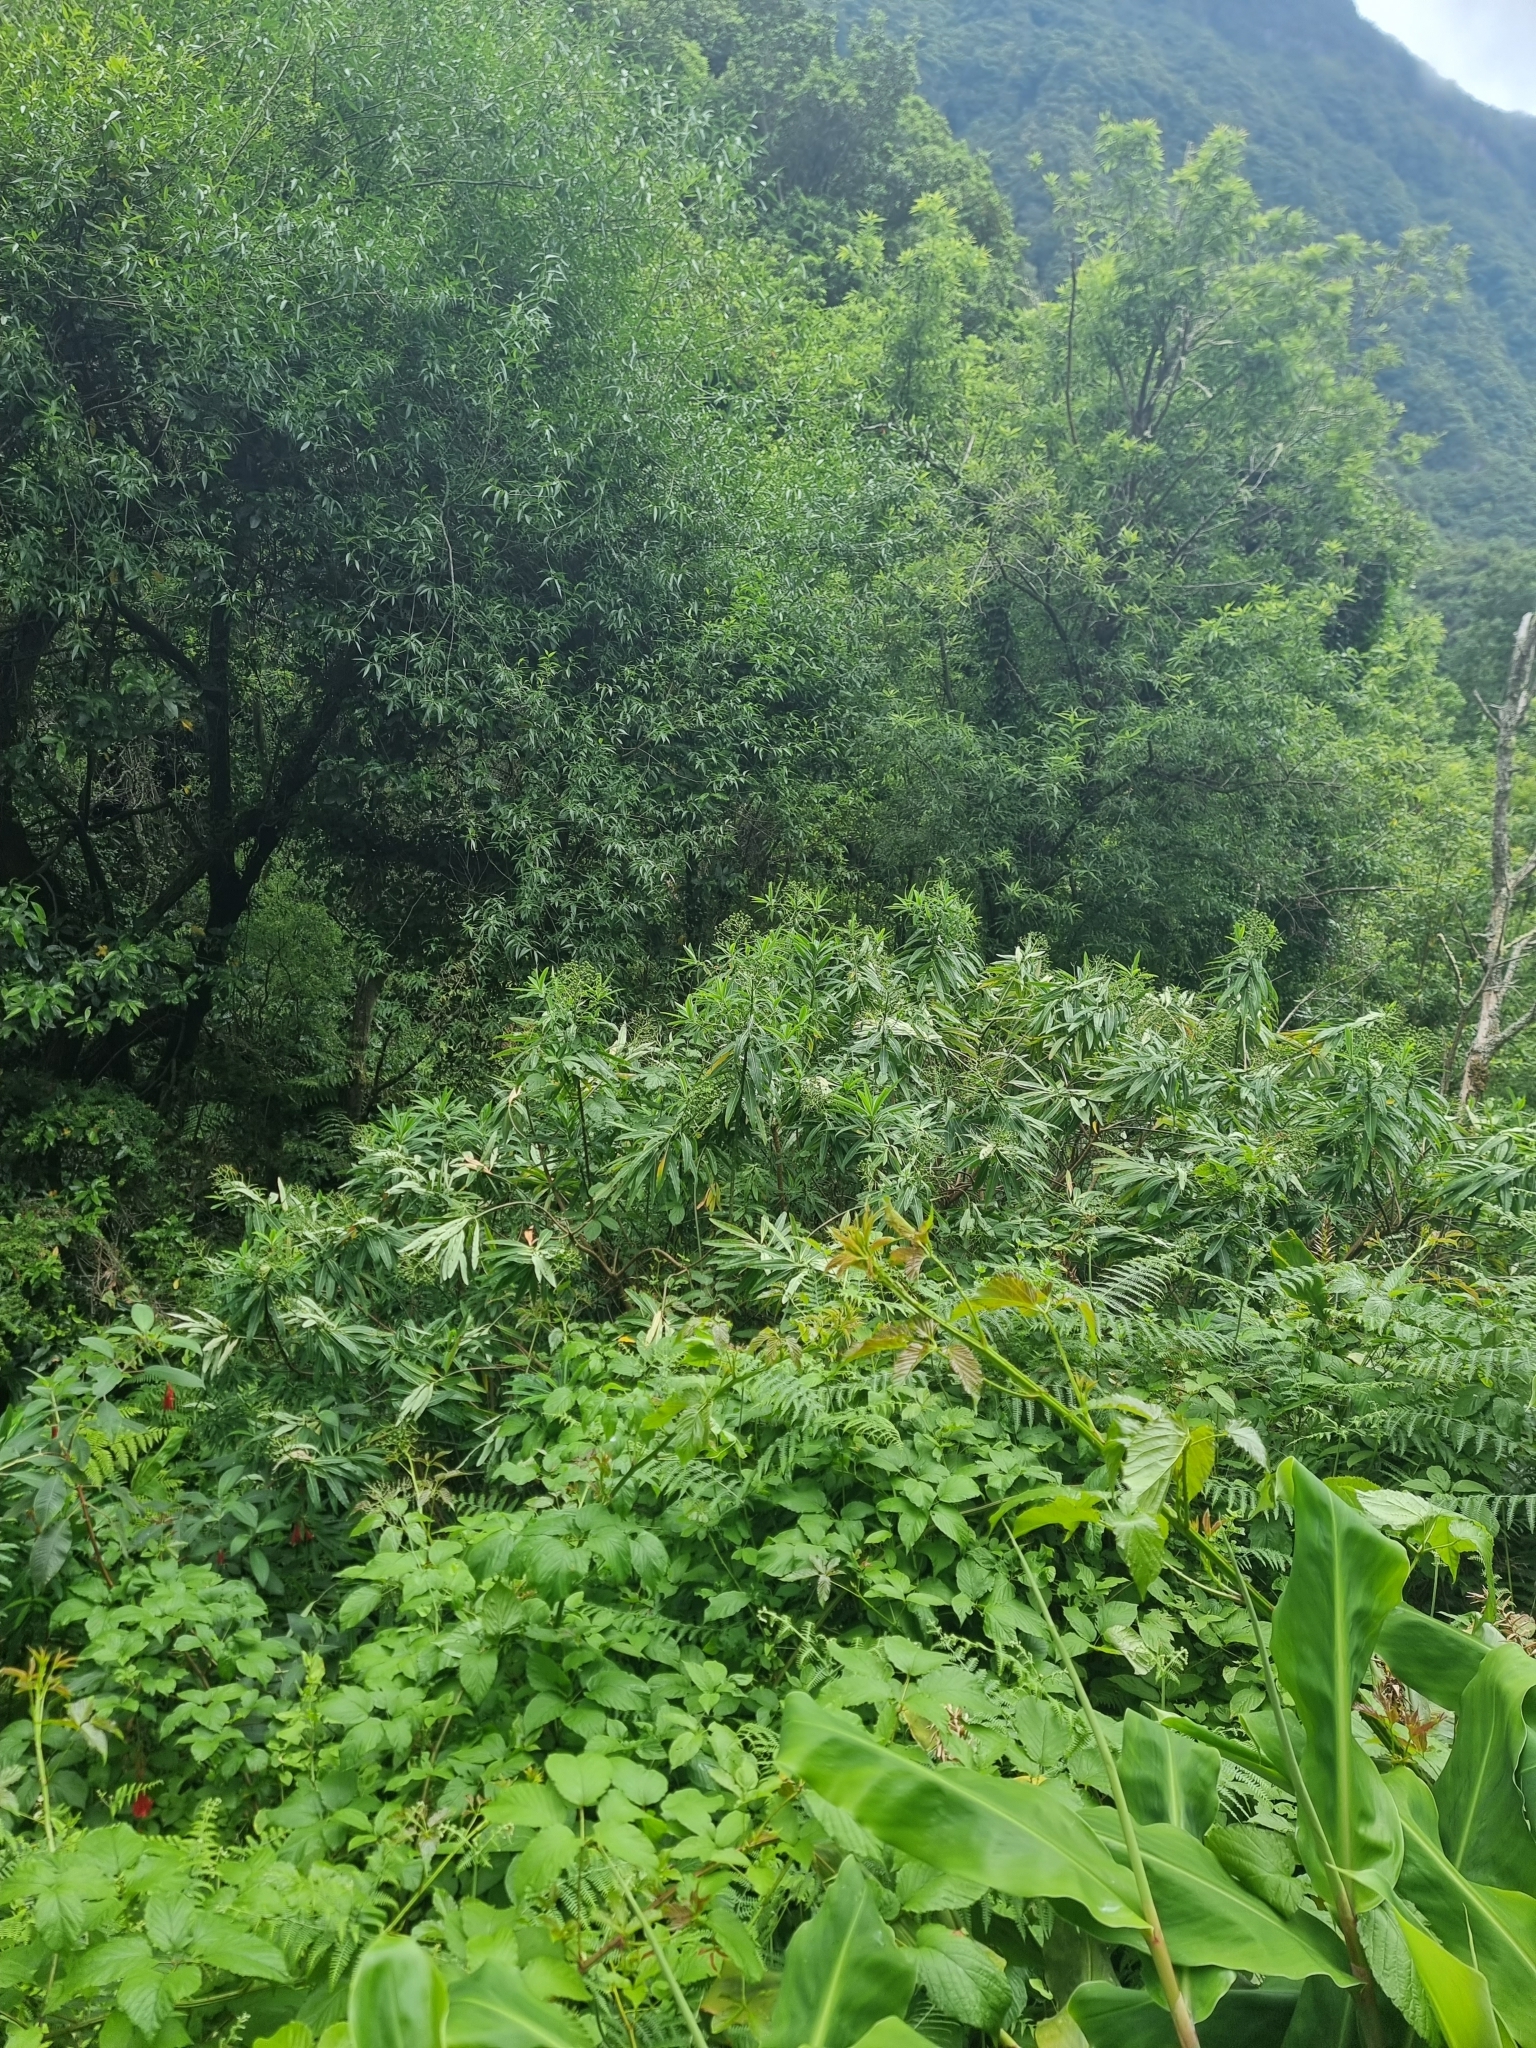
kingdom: Plantae
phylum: Tracheophyta
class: Magnoliopsida
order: Malpighiales
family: Euphorbiaceae
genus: Euphorbia
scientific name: Euphorbia mellifera
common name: Canary spurge
